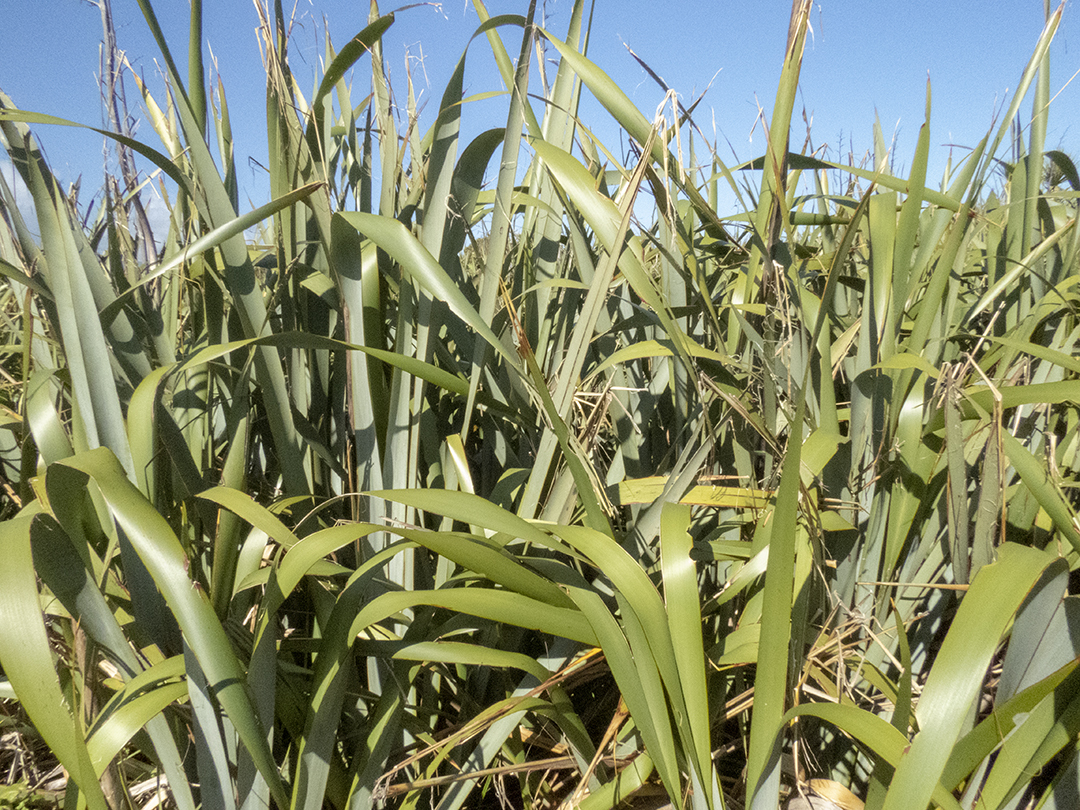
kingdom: Plantae
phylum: Tracheophyta
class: Liliopsida
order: Asparagales
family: Asphodelaceae
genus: Phormium
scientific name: Phormium tenax
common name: New zealand flax
